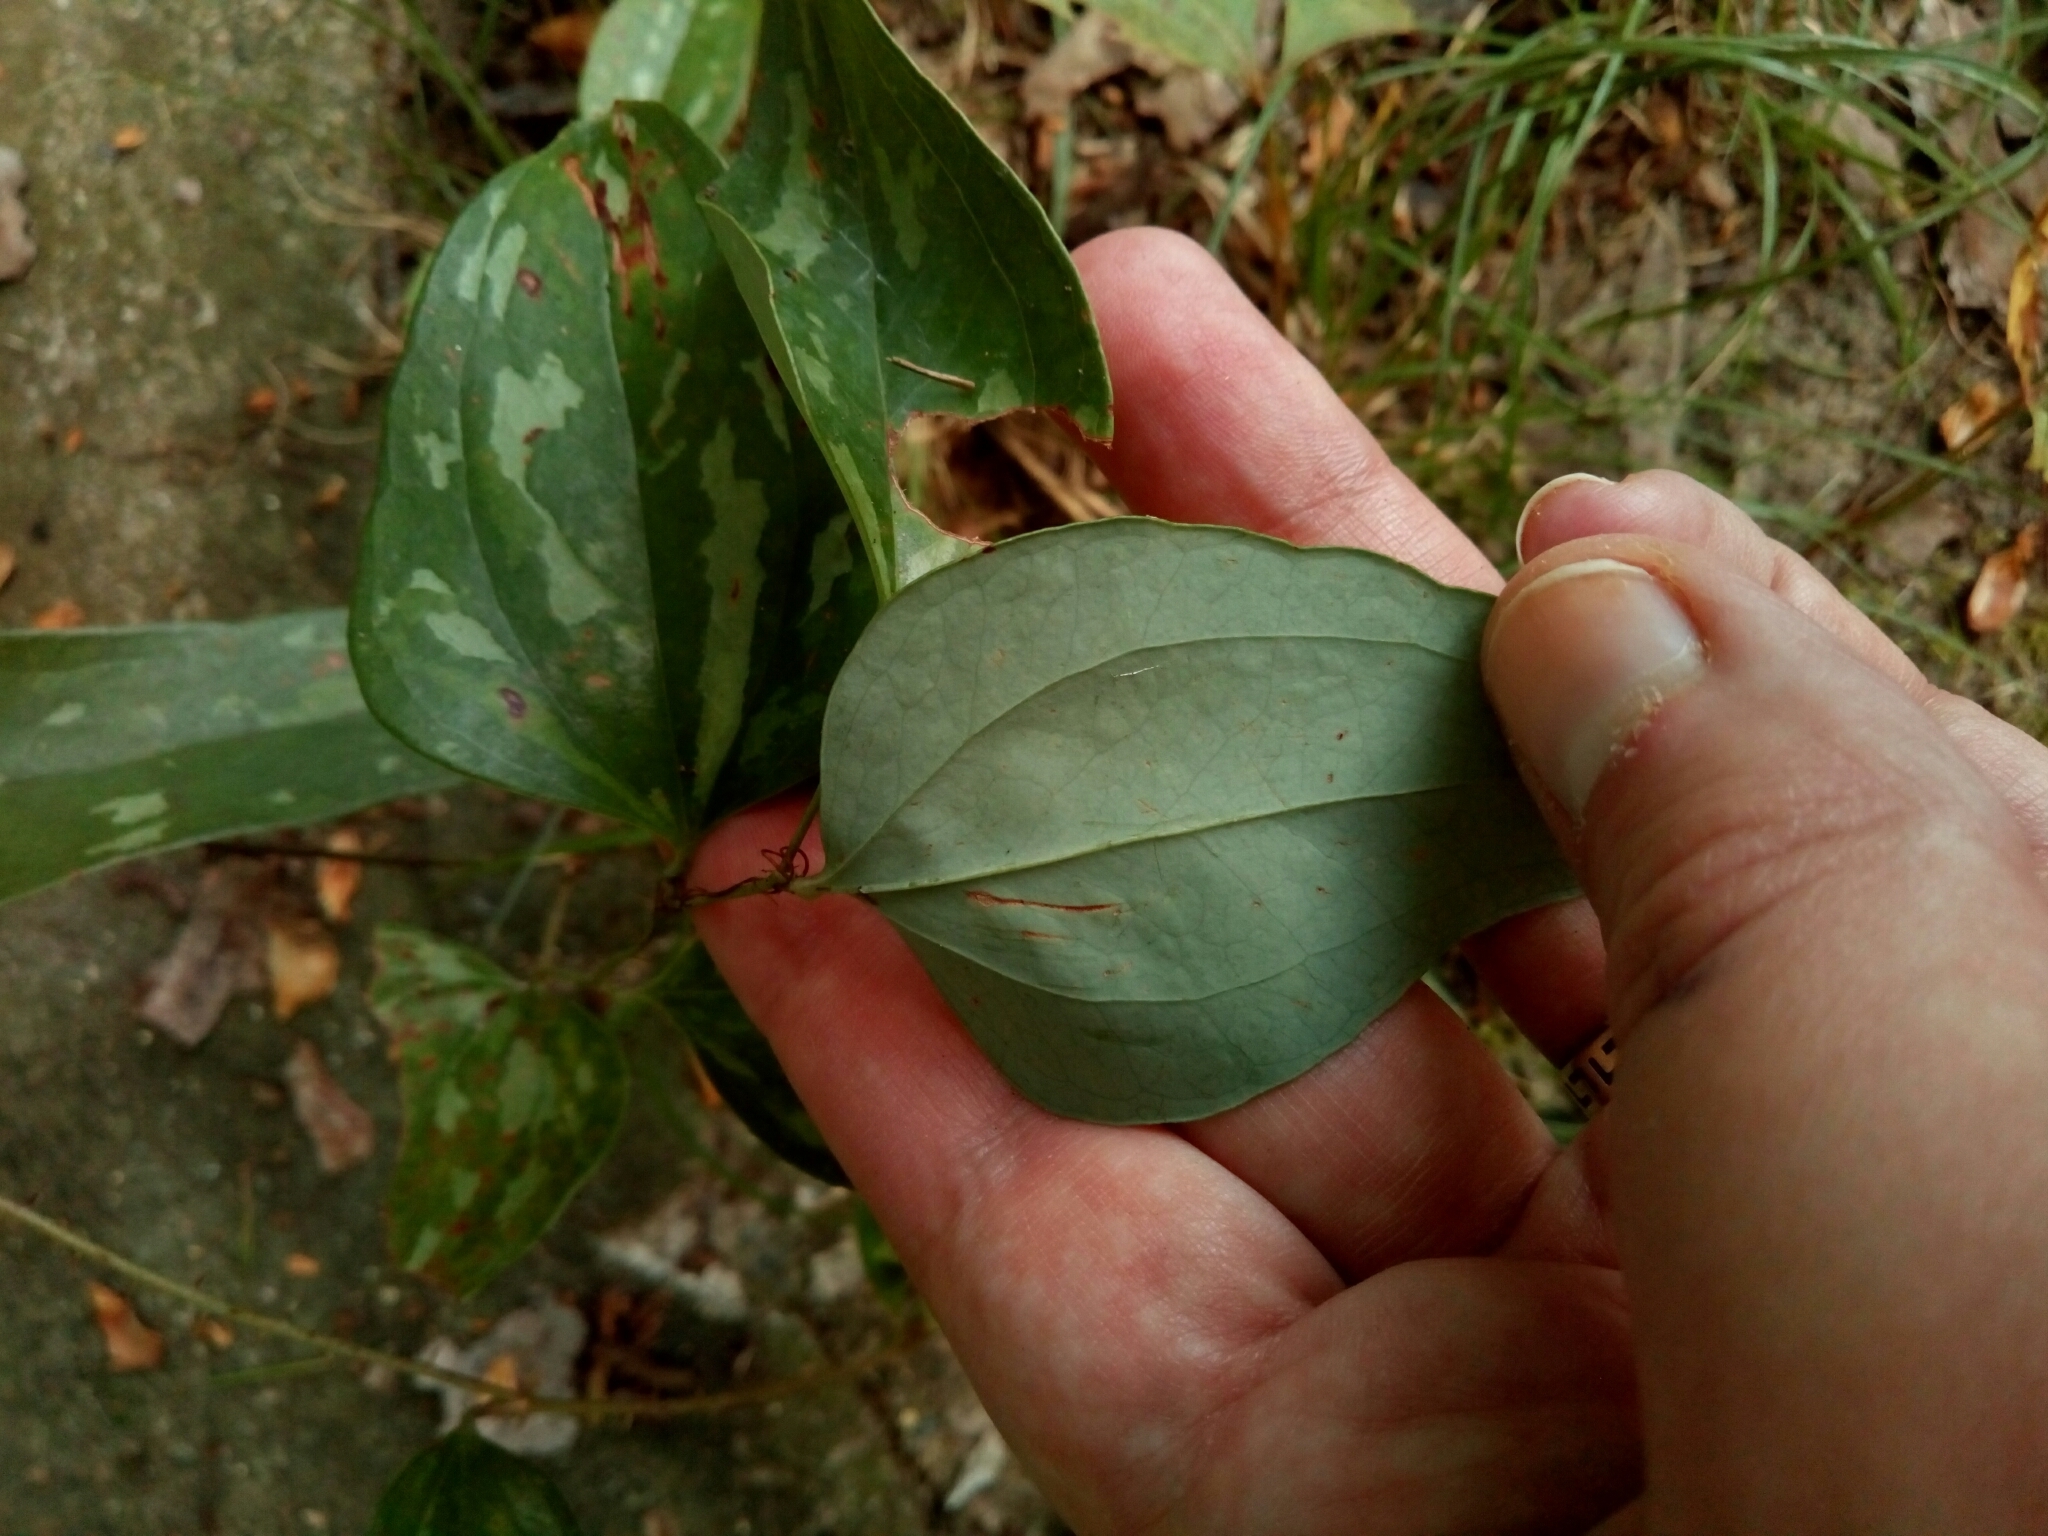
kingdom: Plantae
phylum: Tracheophyta
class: Liliopsida
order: Liliales
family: Smilacaceae
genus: Smilax
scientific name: Smilax glauca
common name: Cat greenbrier
